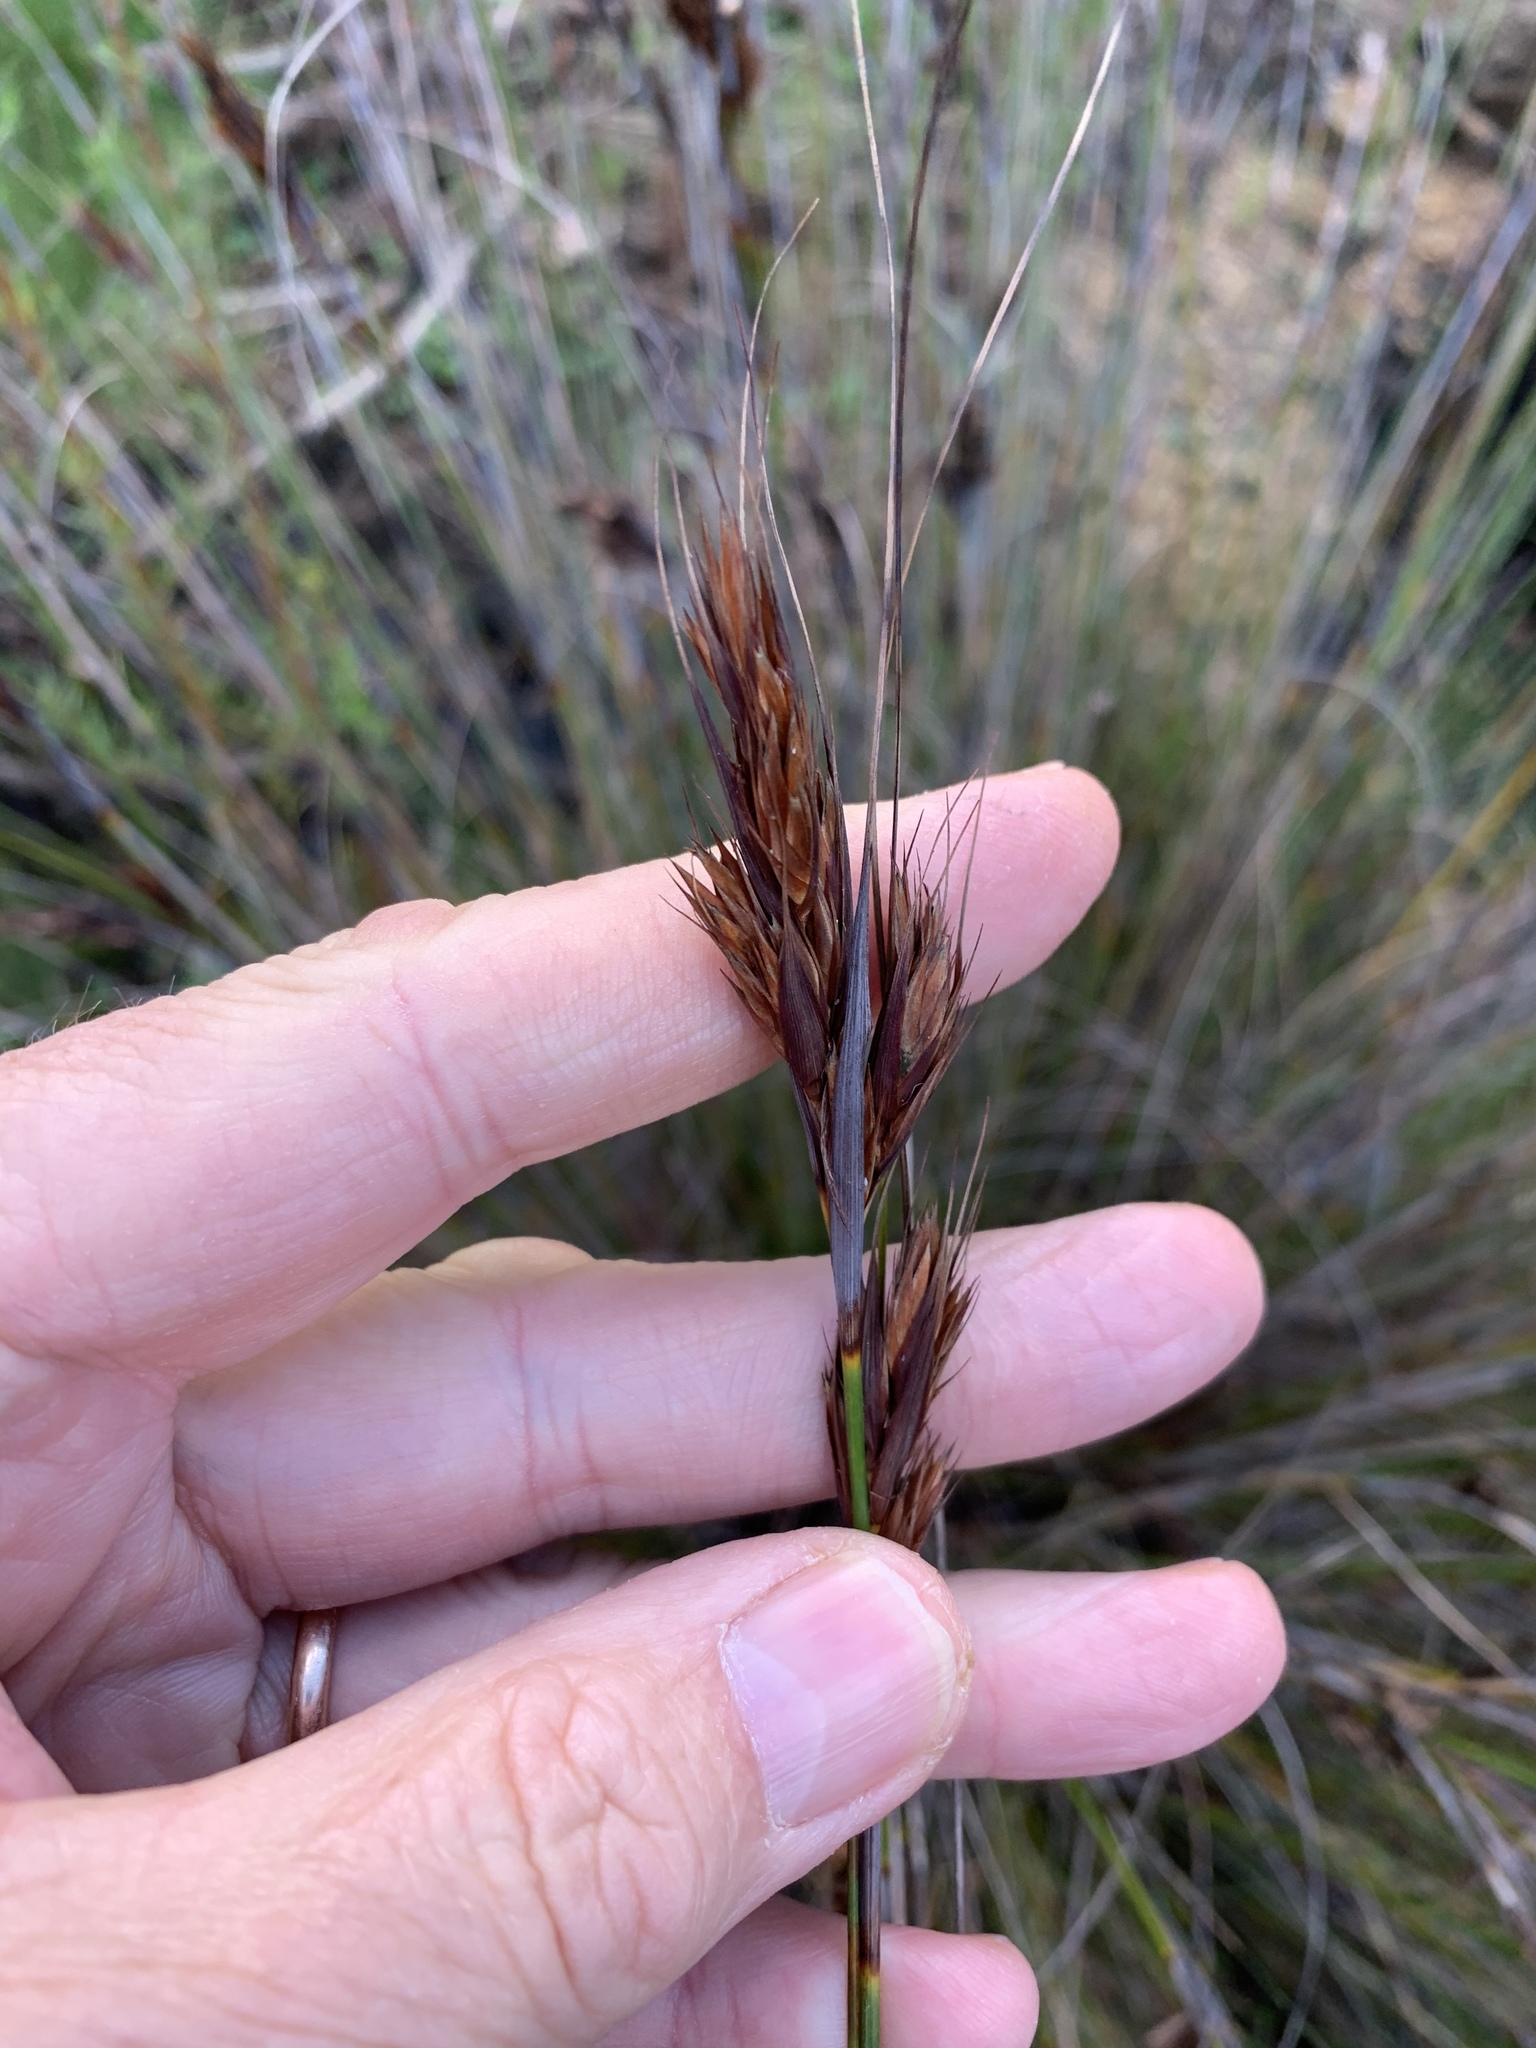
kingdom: Plantae
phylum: Tracheophyta
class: Liliopsida
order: Poales
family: Cyperaceae
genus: Tetraria
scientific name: Tetraria ustulata
